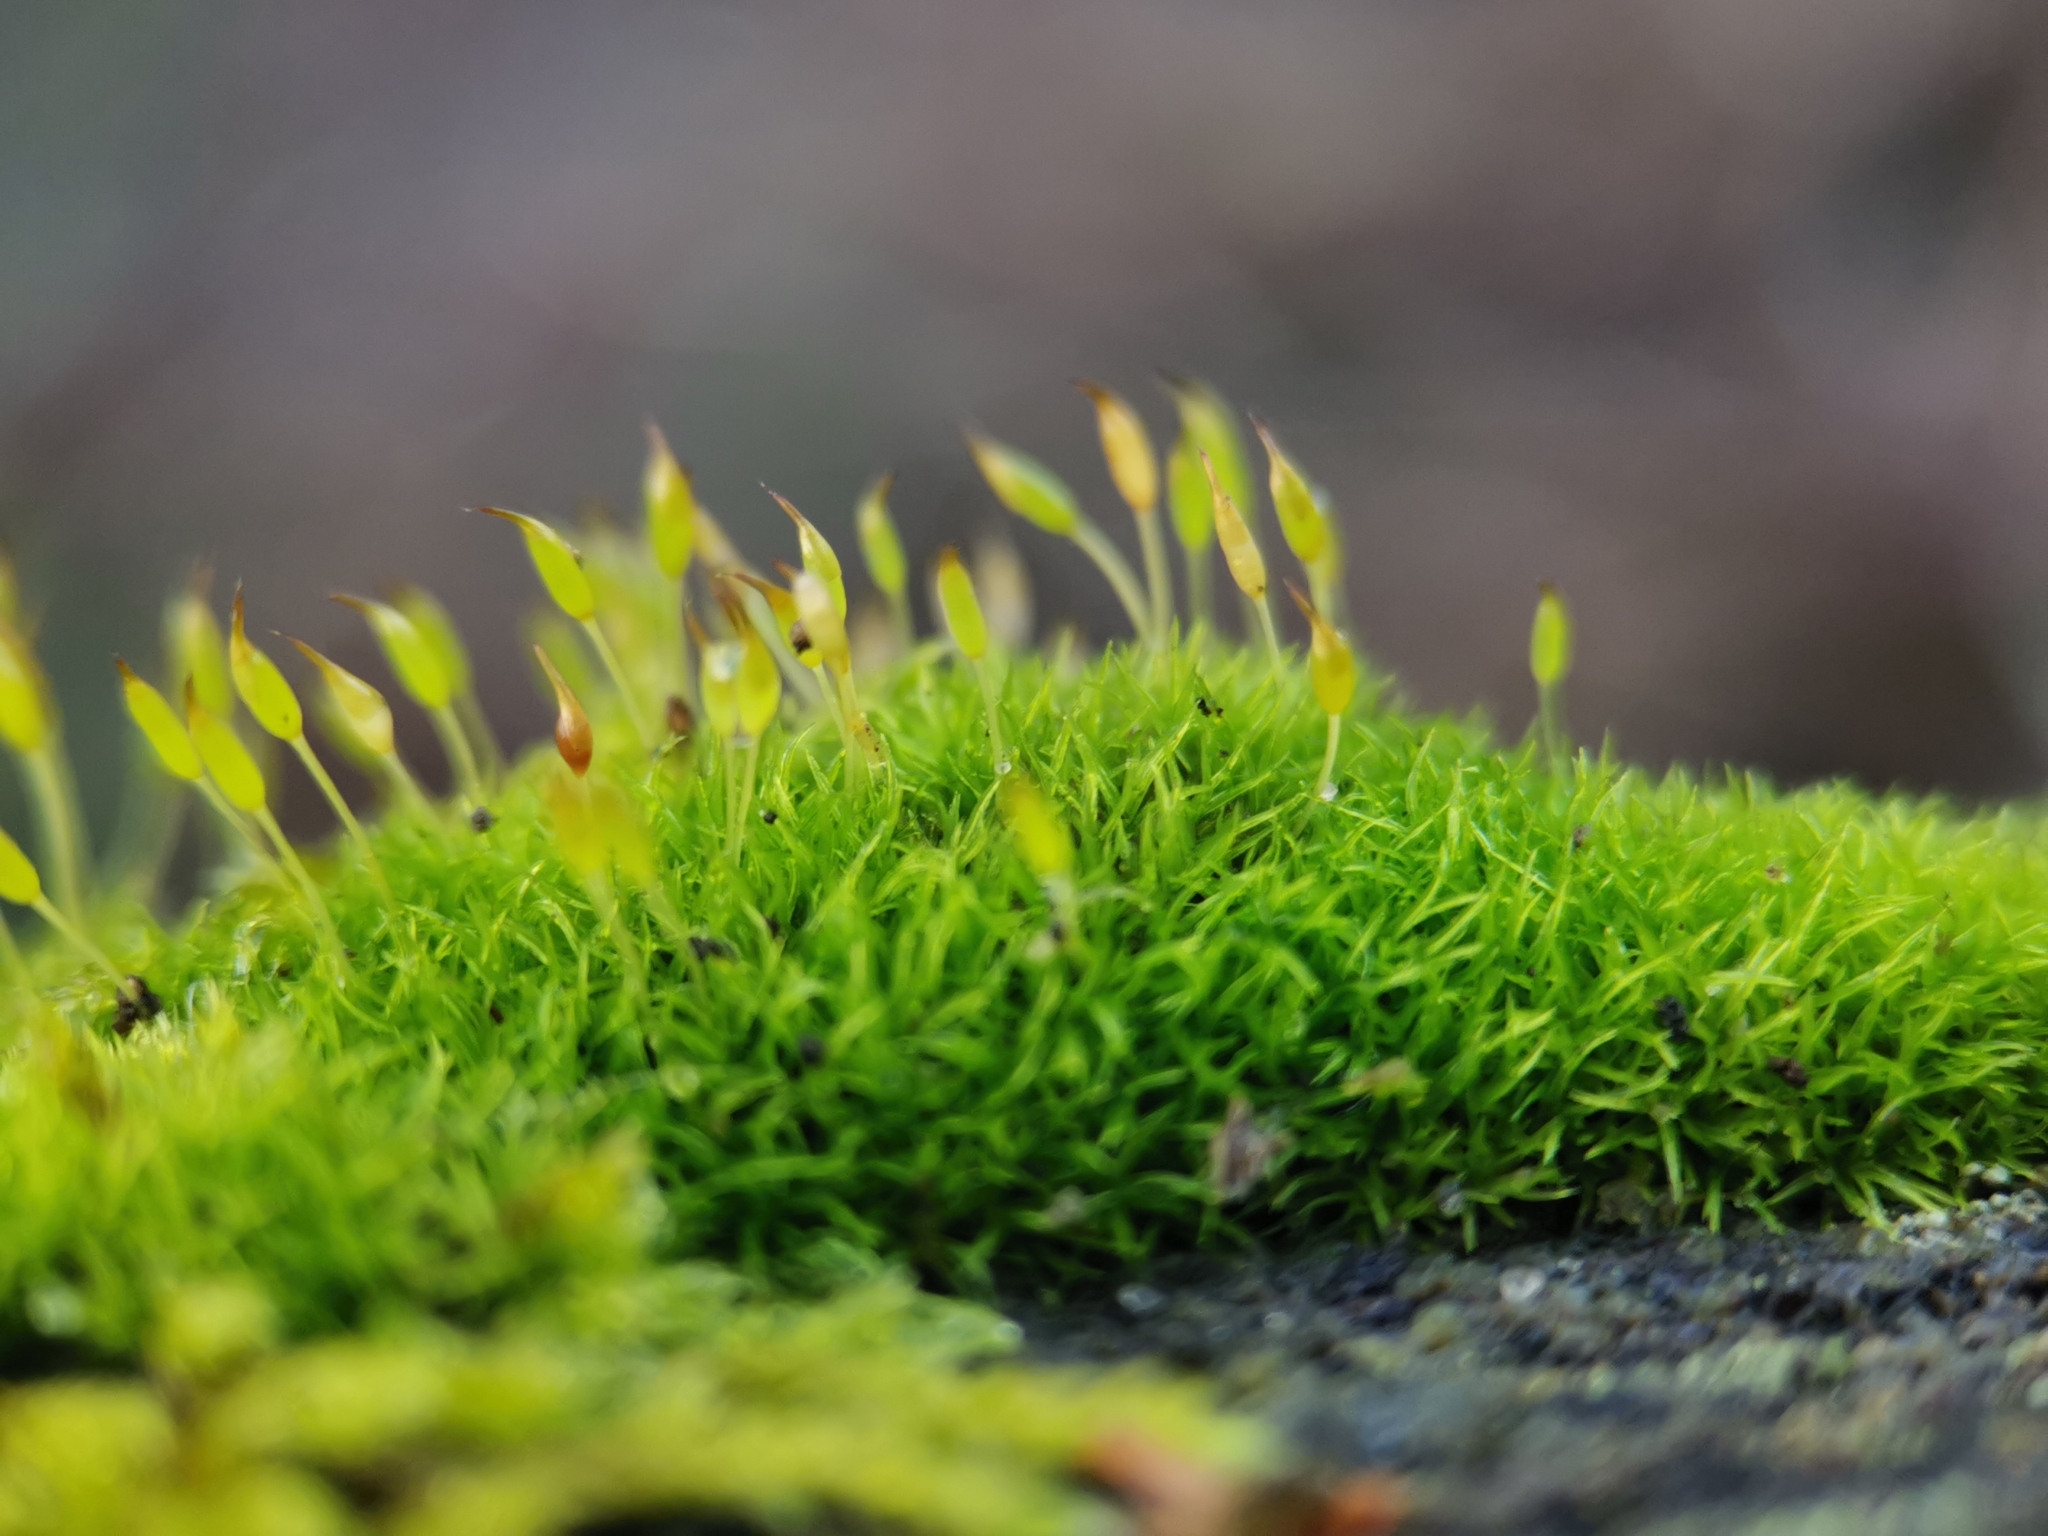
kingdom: Plantae
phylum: Bryophyta
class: Bryopsida
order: Dicranales
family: Rhabdoweisiaceae
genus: Dicranoweisia
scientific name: Dicranoweisia cirrata
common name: Common pincushion
